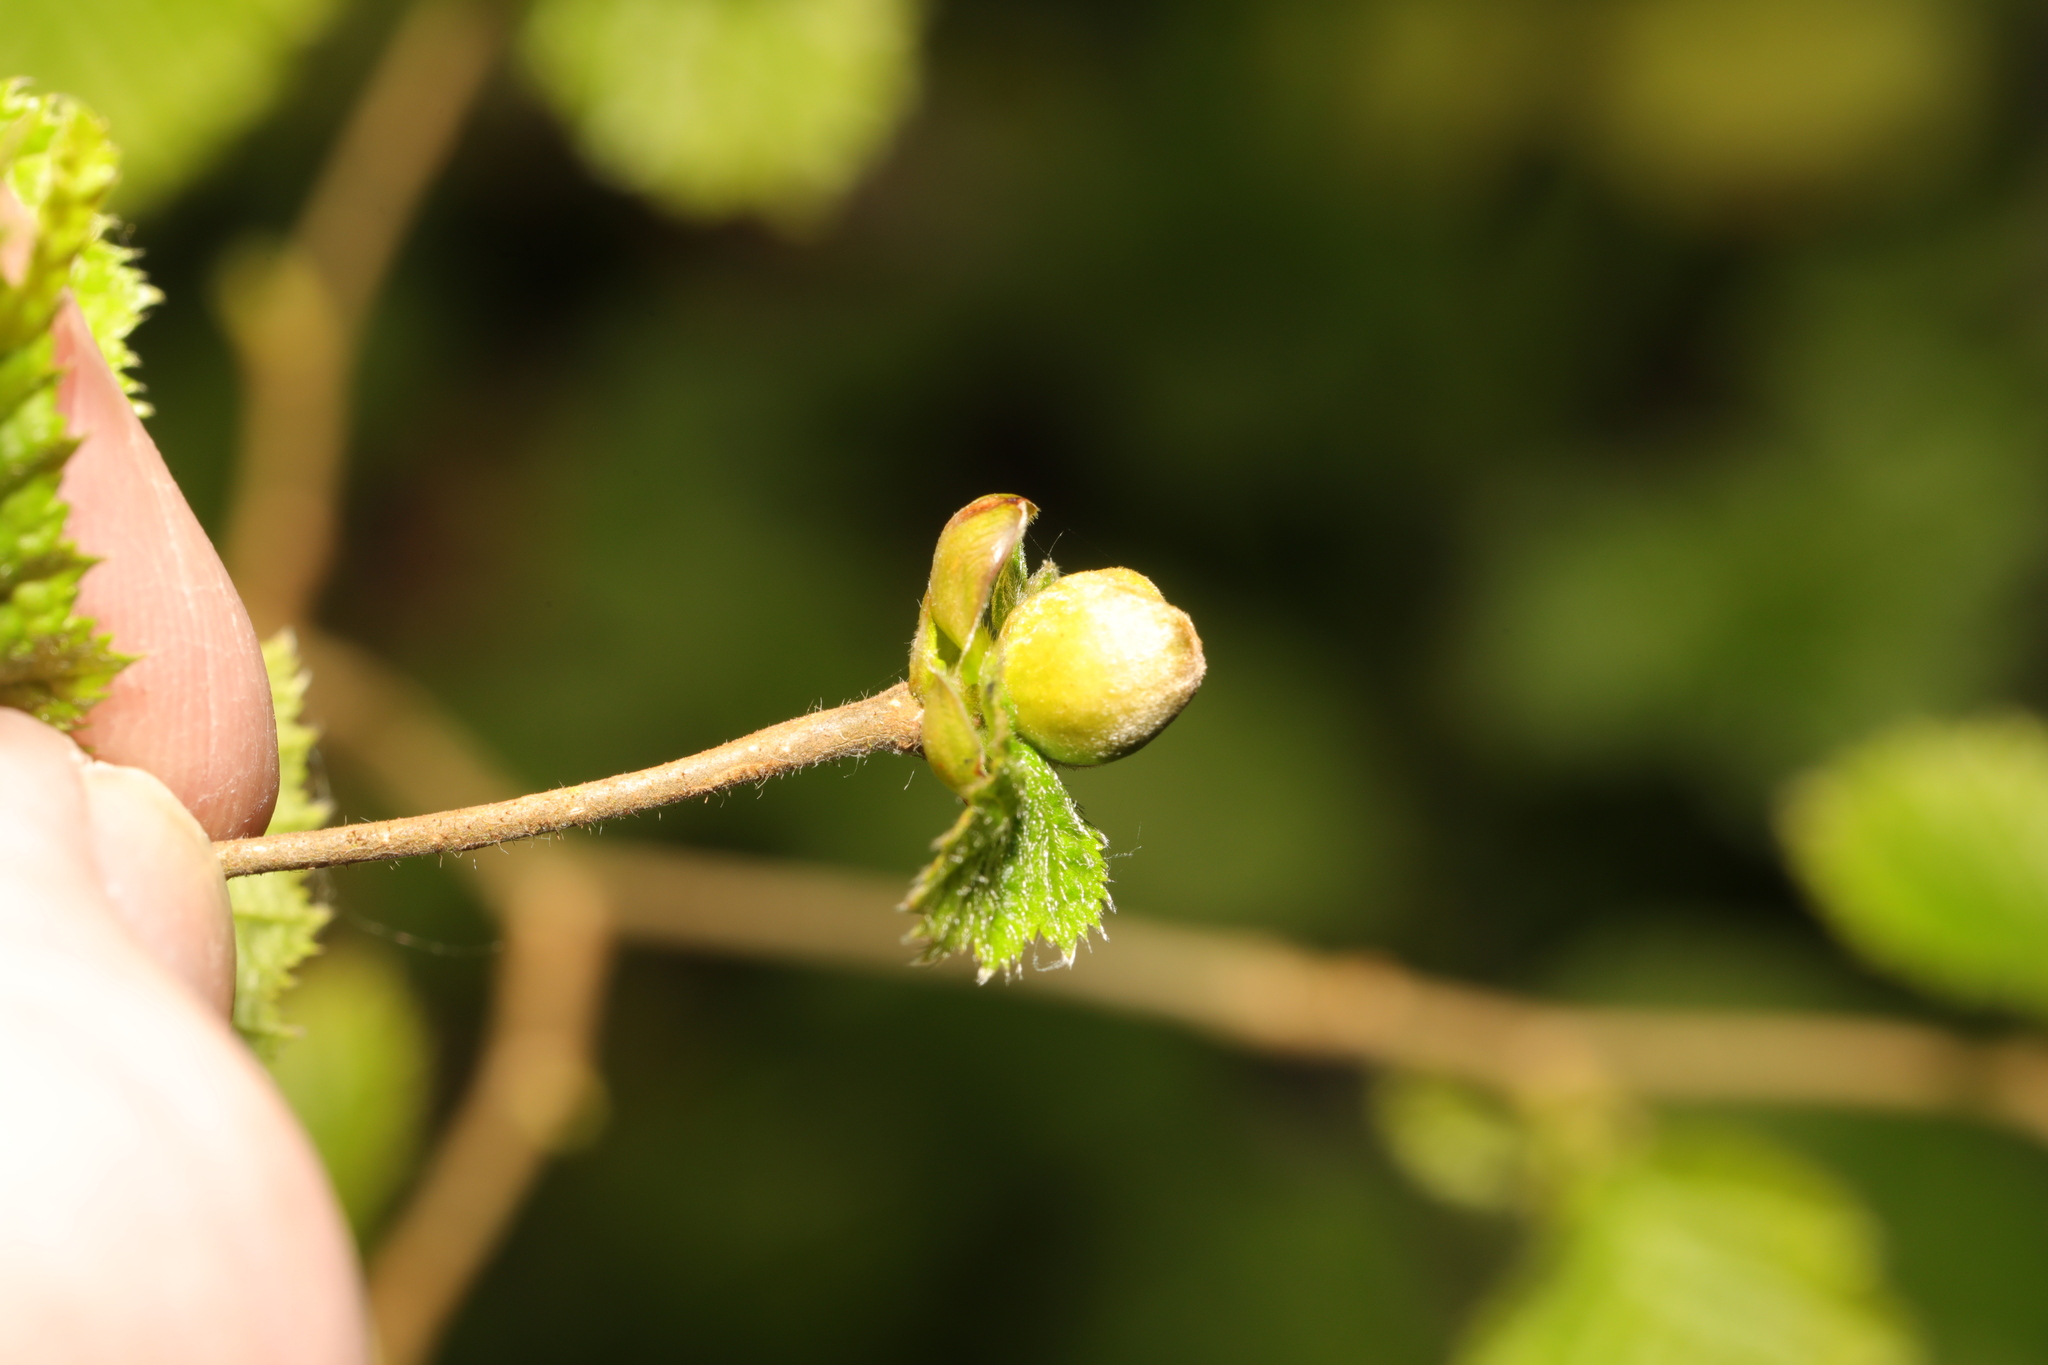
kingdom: Animalia
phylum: Arthropoda
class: Arachnida
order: Trombidiformes
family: Phytoptidae
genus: Phytoptus
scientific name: Phytoptus avellanae
